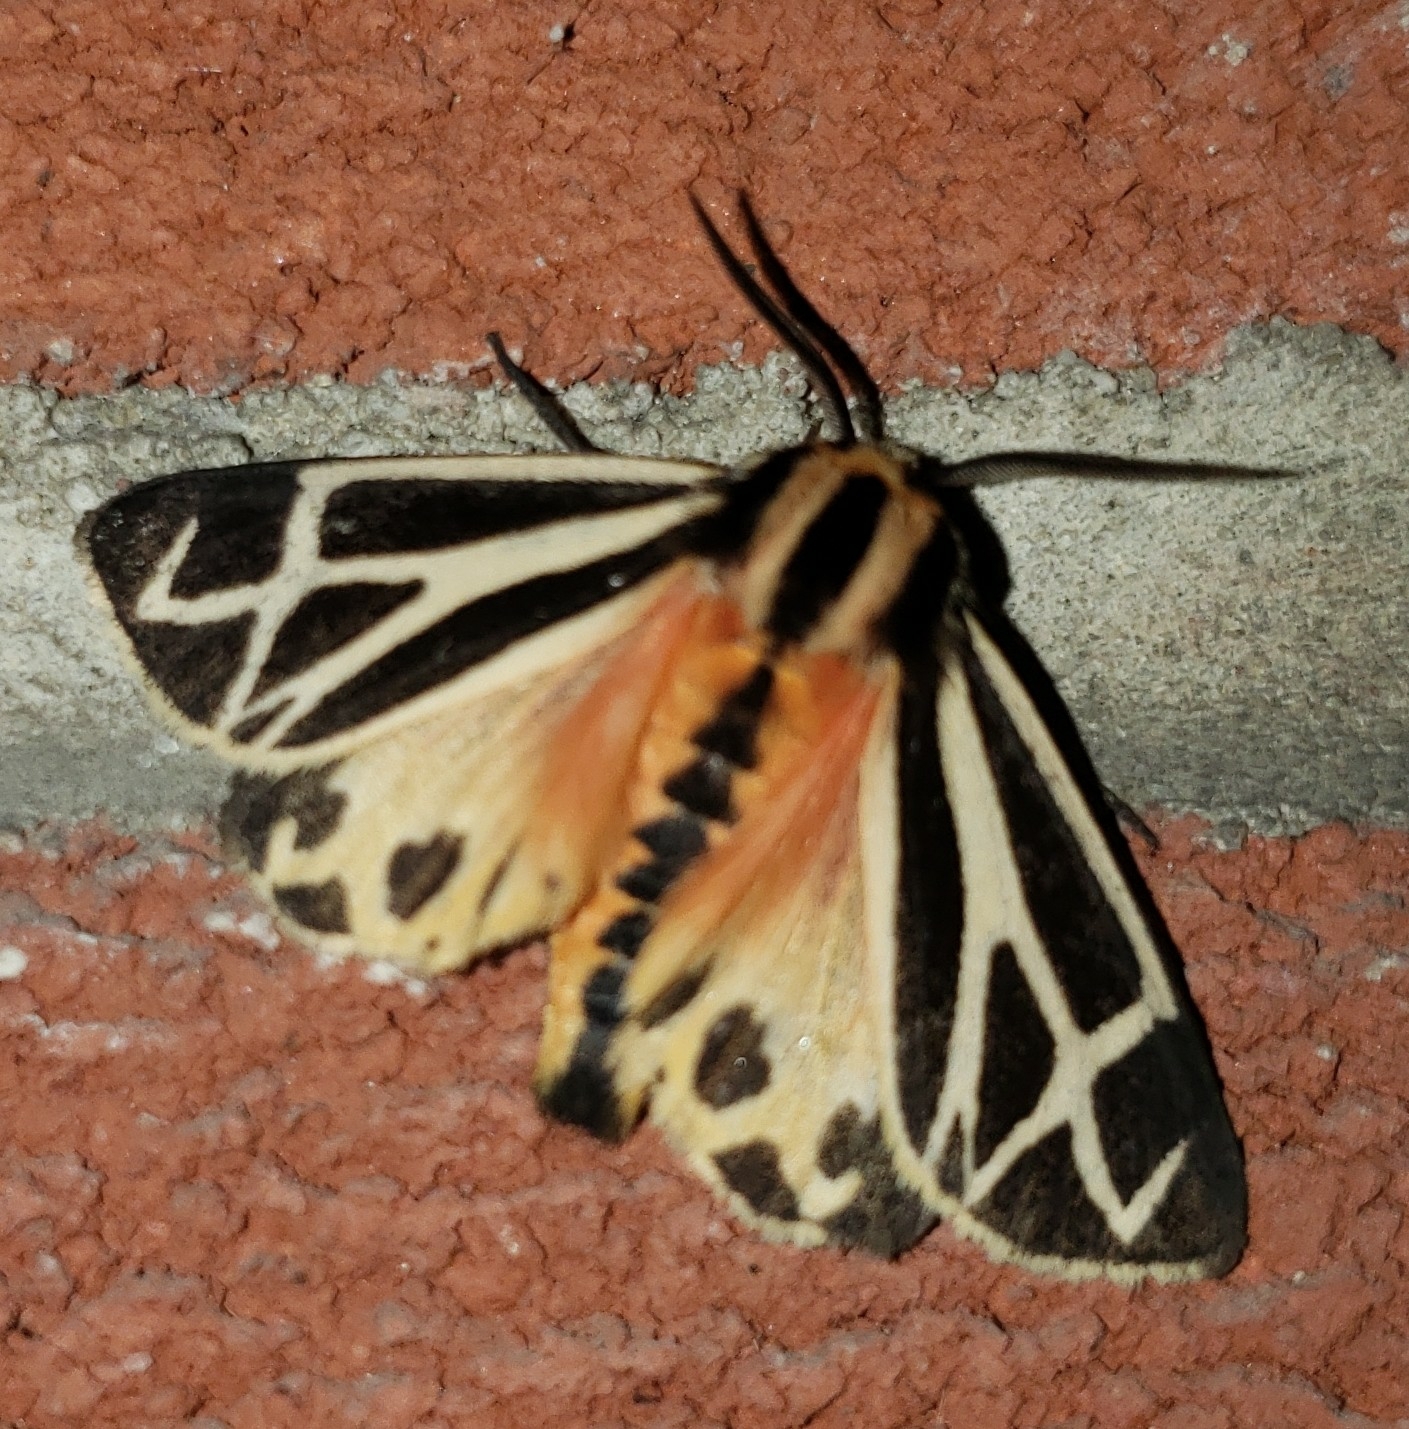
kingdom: Animalia
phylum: Arthropoda
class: Insecta
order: Lepidoptera
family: Erebidae
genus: Apantesis
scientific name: Apantesis phalerata
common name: Harnessed tiger moth
